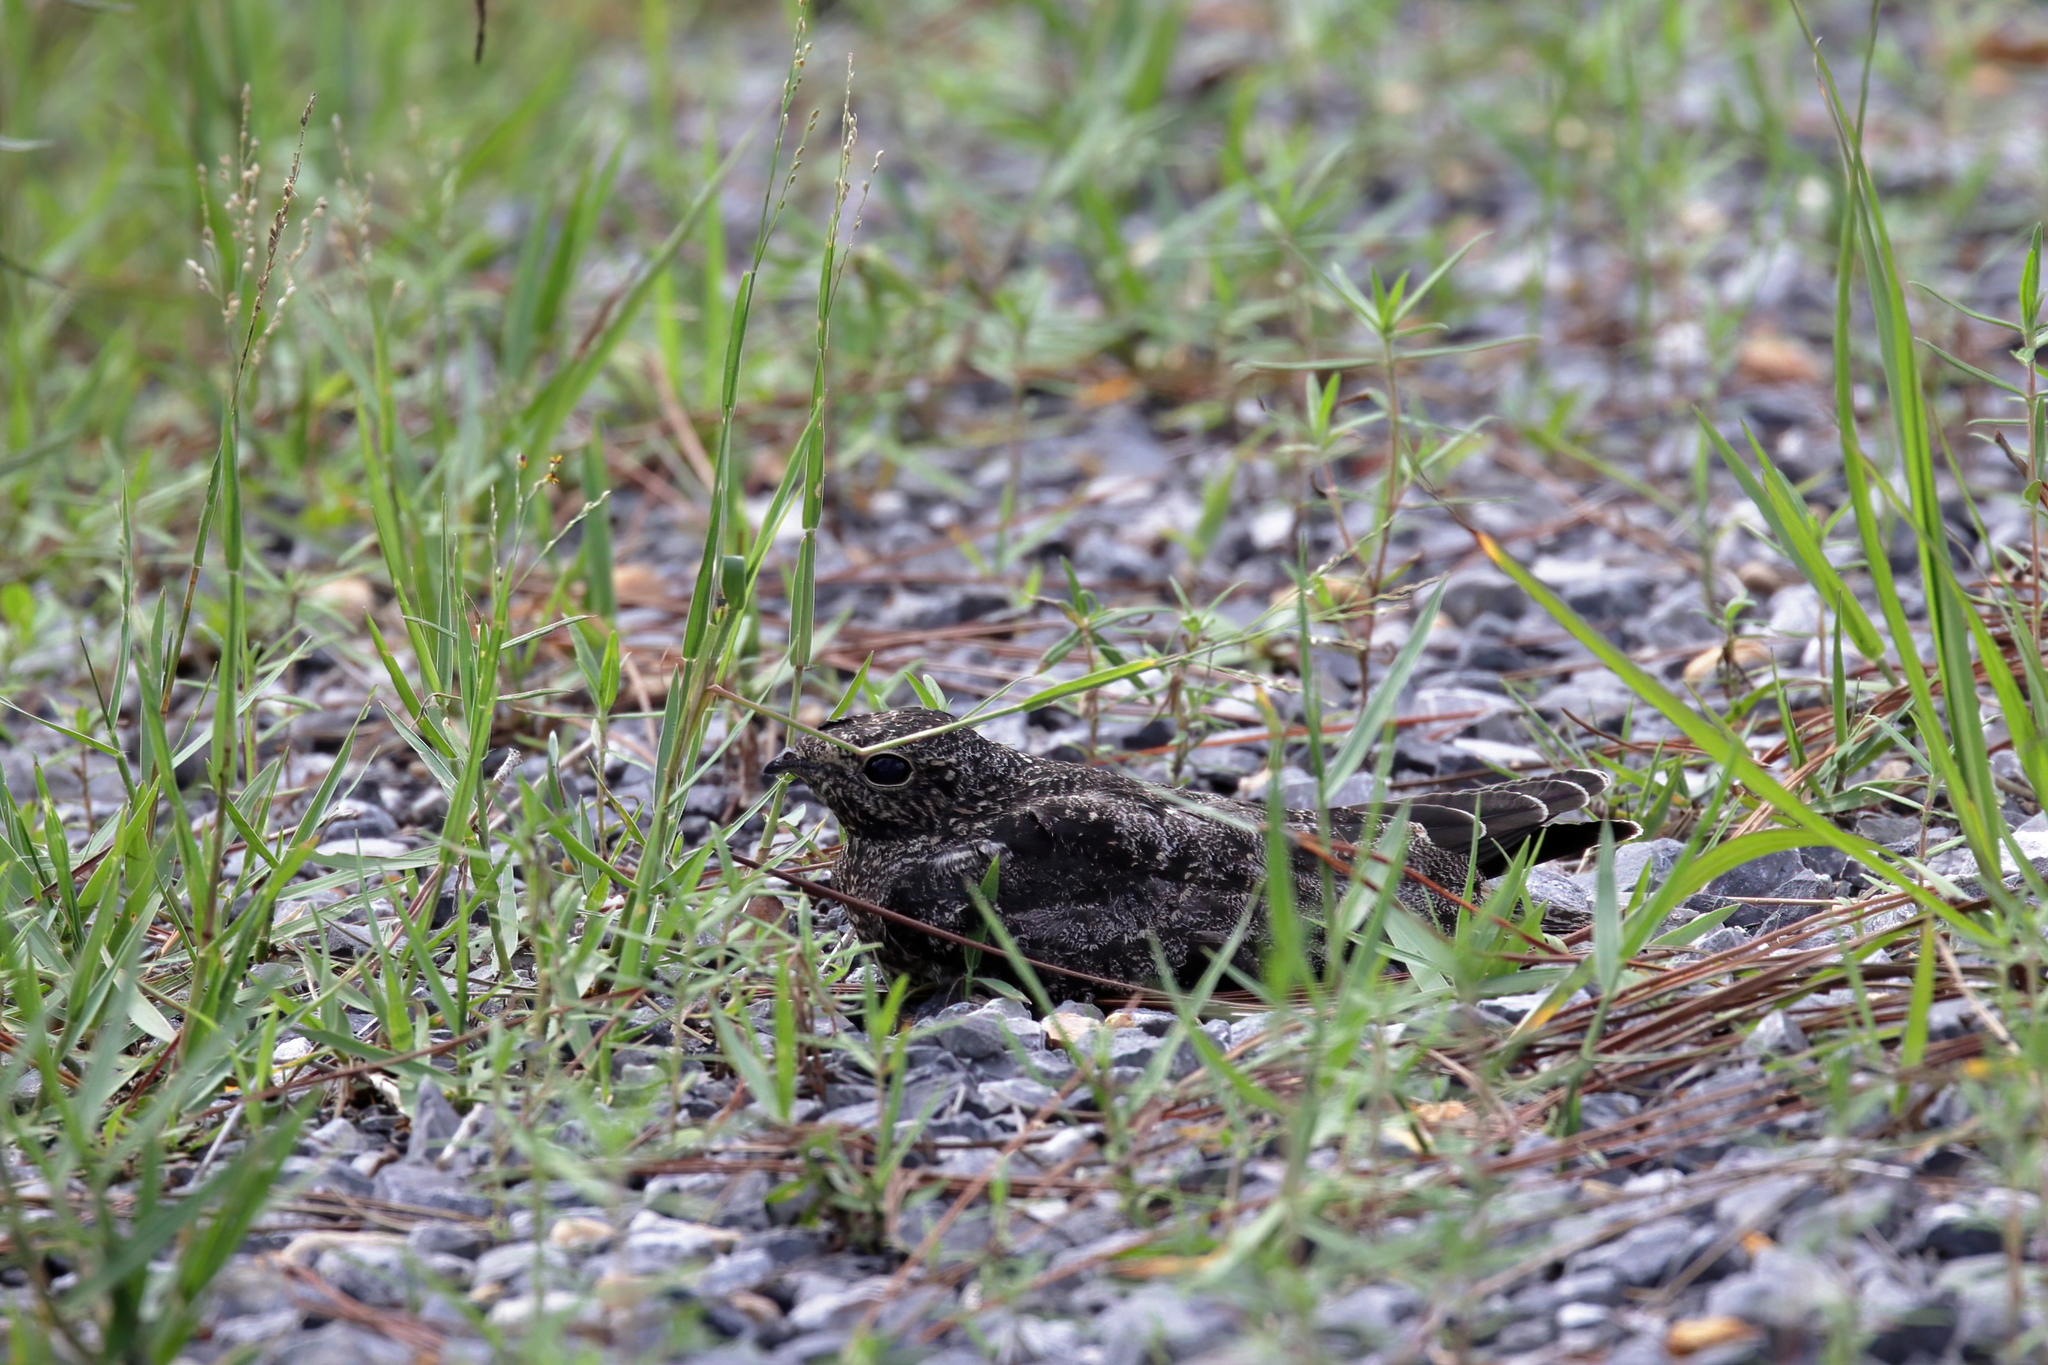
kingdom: Animalia
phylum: Chordata
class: Aves
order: Caprimulgiformes
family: Caprimulgidae
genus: Chordeiles
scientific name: Chordeiles minor
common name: Common nighthawk
